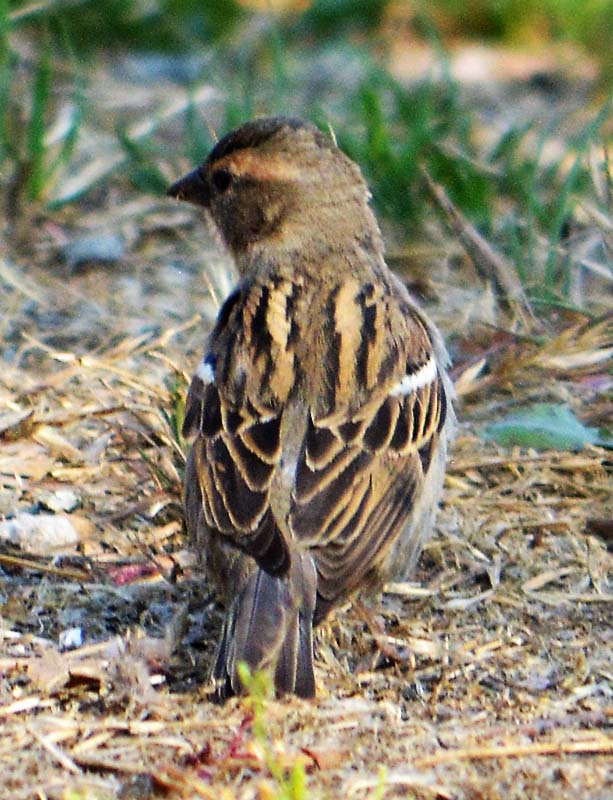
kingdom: Animalia
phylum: Chordata
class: Aves
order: Passeriformes
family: Passeridae
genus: Passer
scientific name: Passer domesticus
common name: House sparrow
